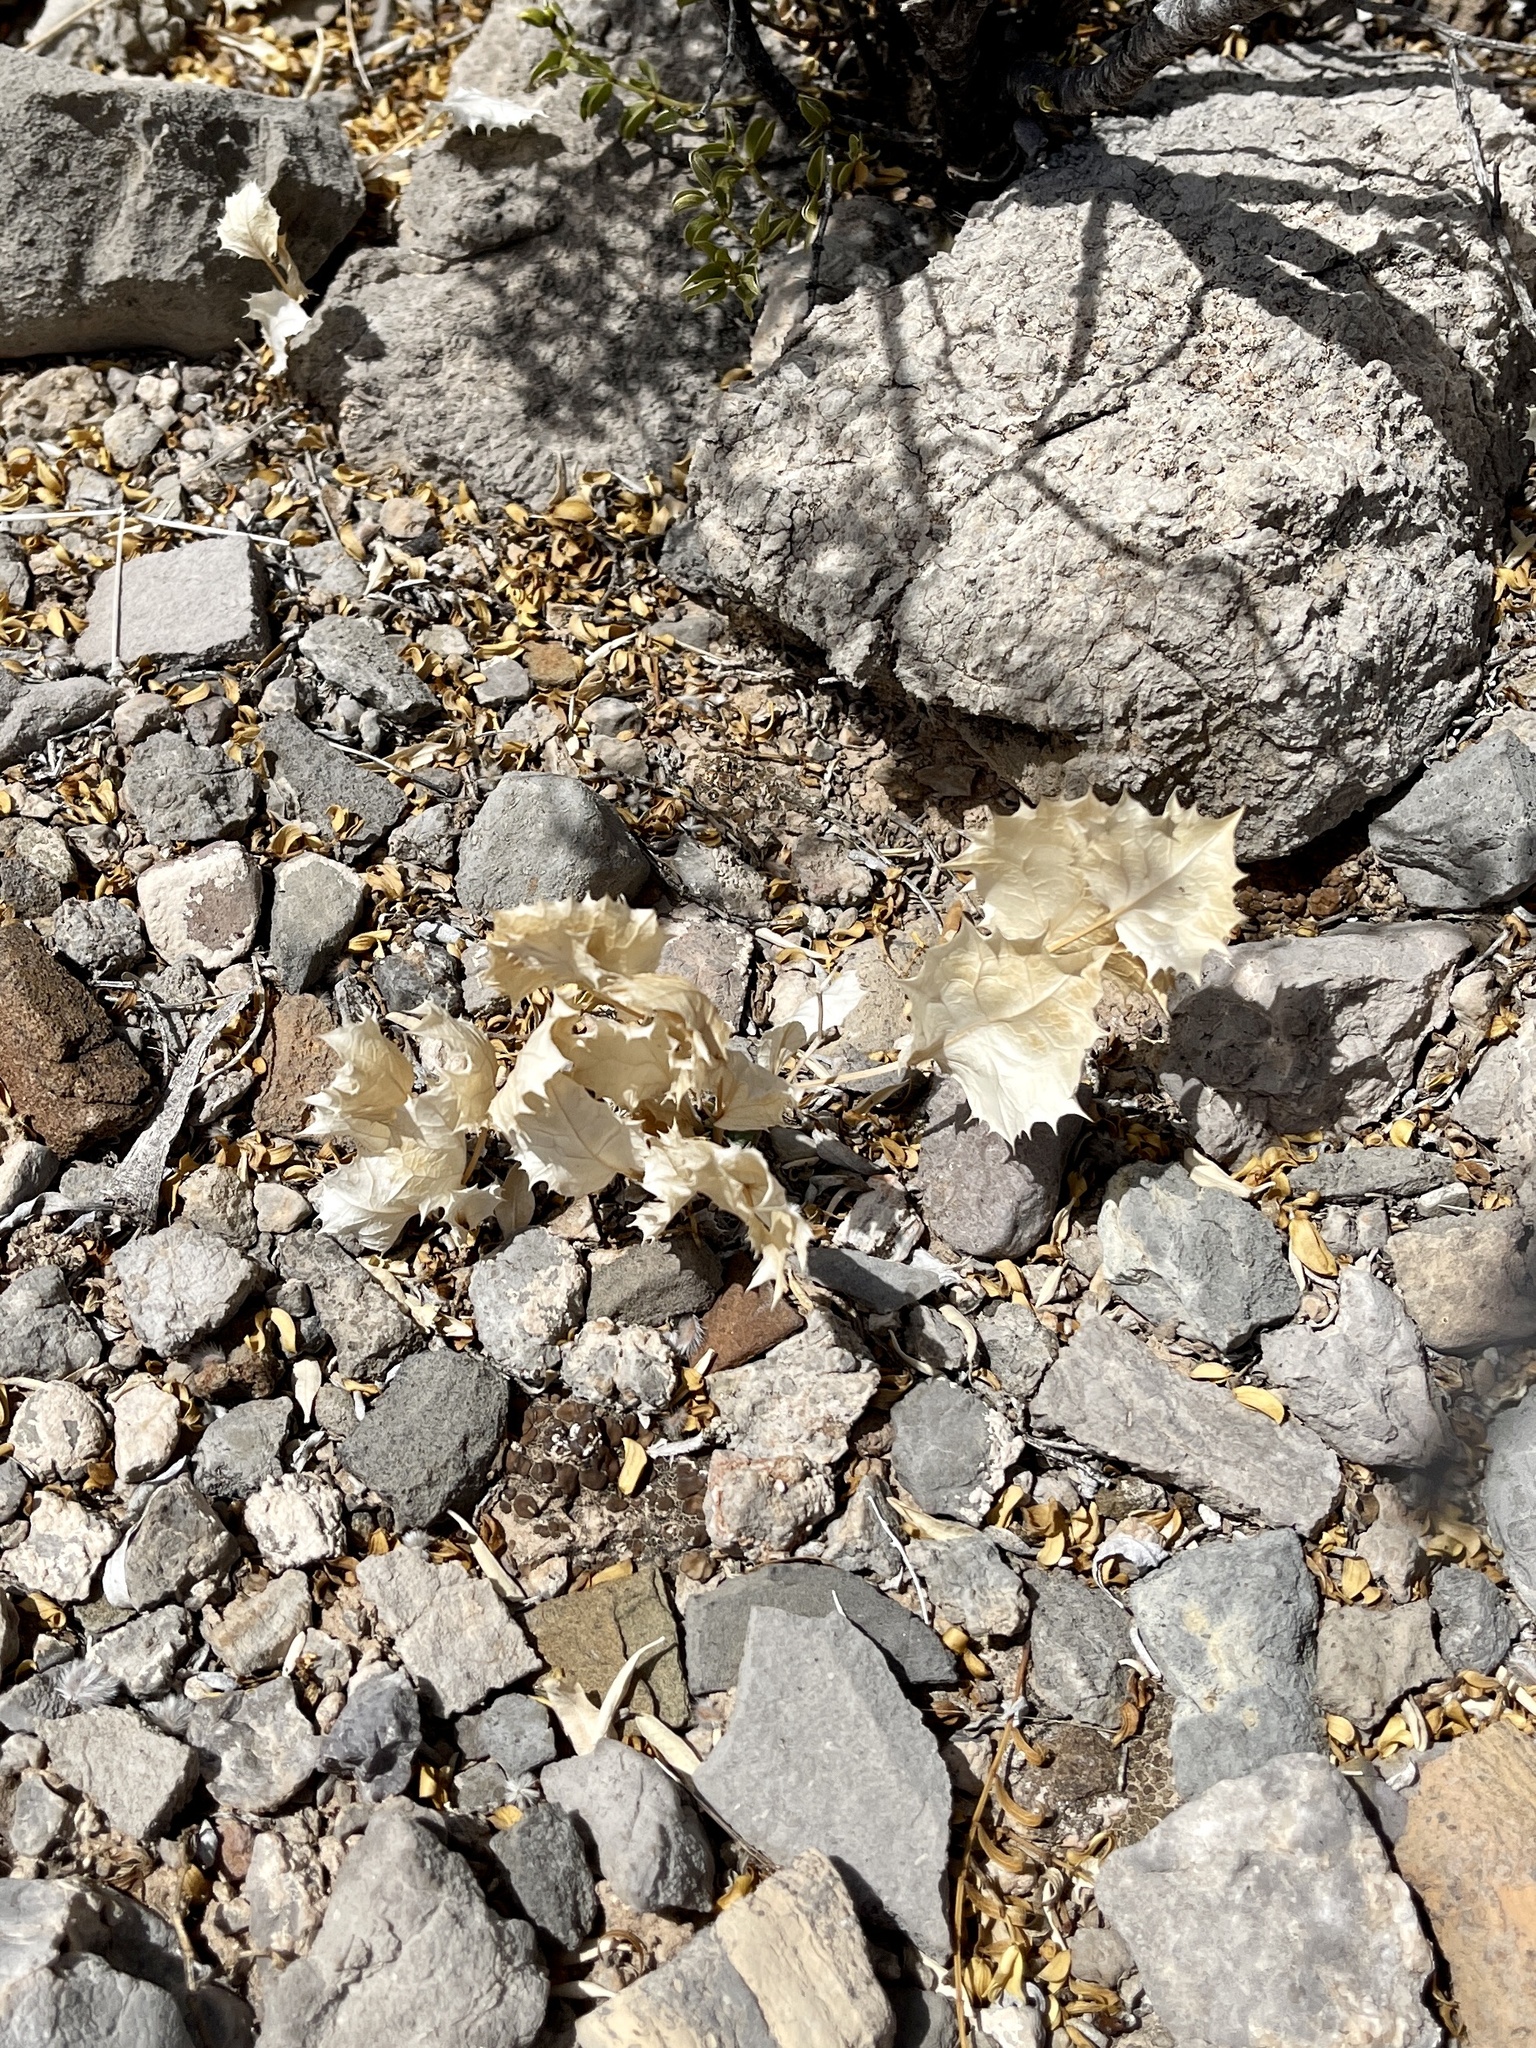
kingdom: Plantae
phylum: Tracheophyta
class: Magnoliopsida
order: Asterales
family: Asteraceae
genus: Acourtia
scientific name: Acourtia nana
